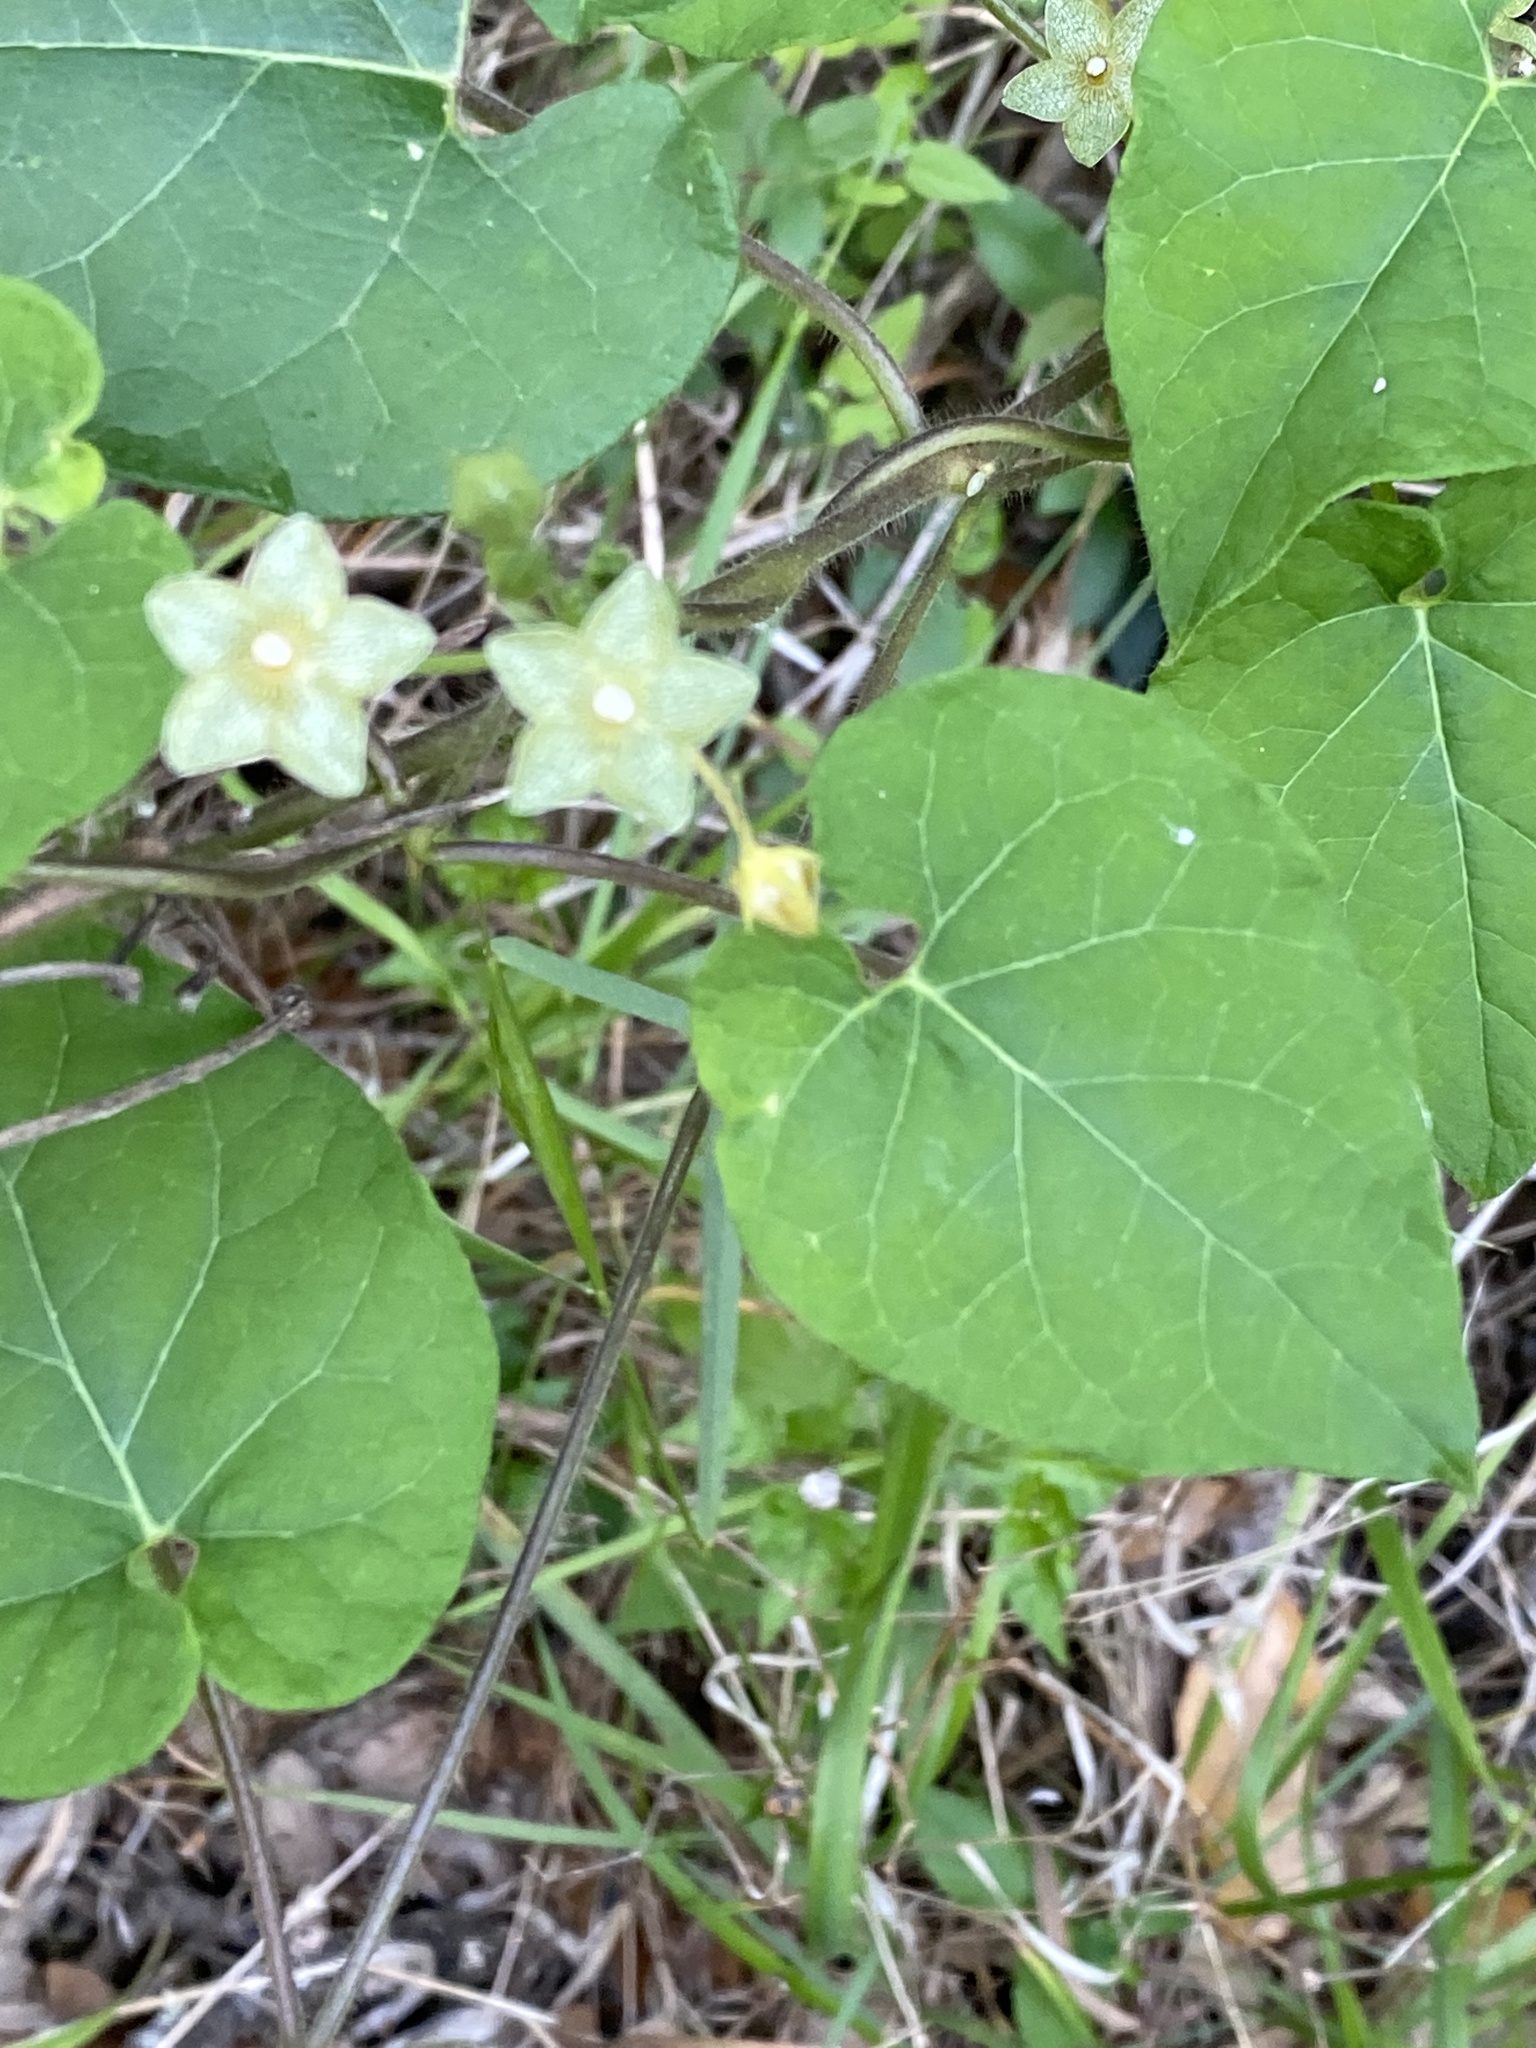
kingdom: Plantae
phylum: Tracheophyta
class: Magnoliopsida
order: Gentianales
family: Apocynaceae
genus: Dictyanthus
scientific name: Dictyanthus reticulatus
